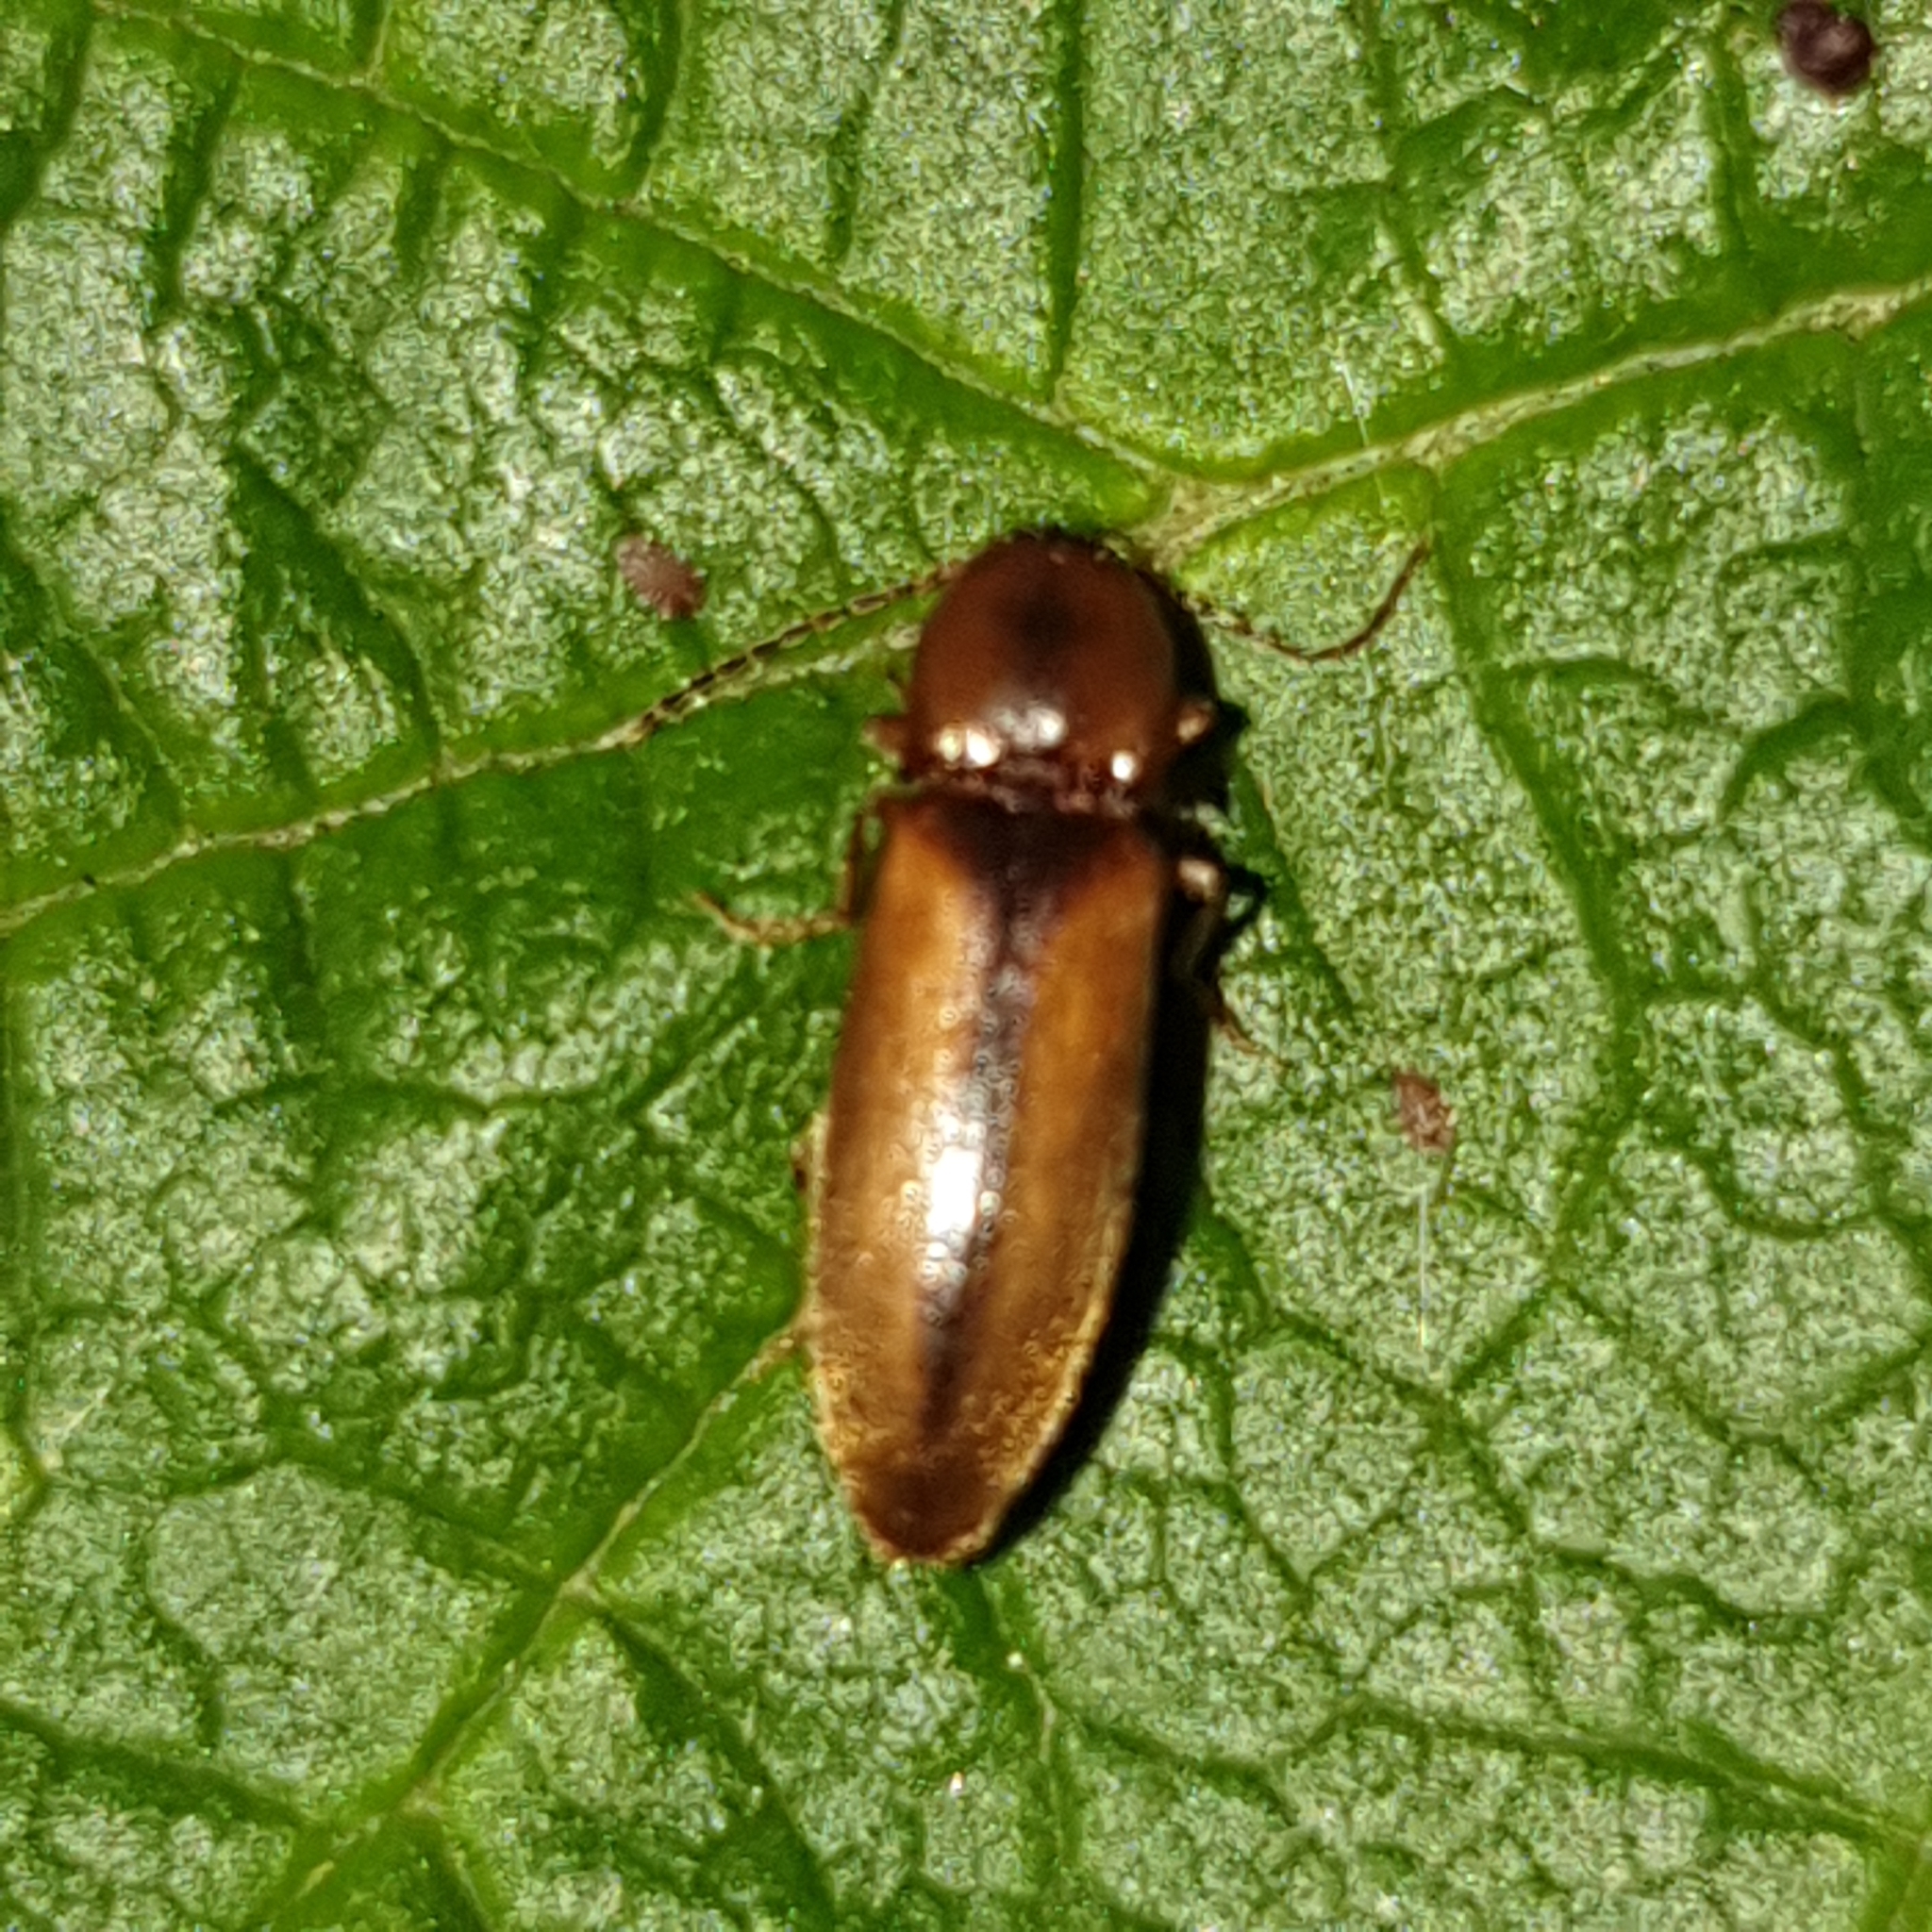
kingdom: Animalia
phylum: Arthropoda
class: Insecta
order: Coleoptera
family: Elateridae
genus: Dalopius
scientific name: Dalopius marginatus
